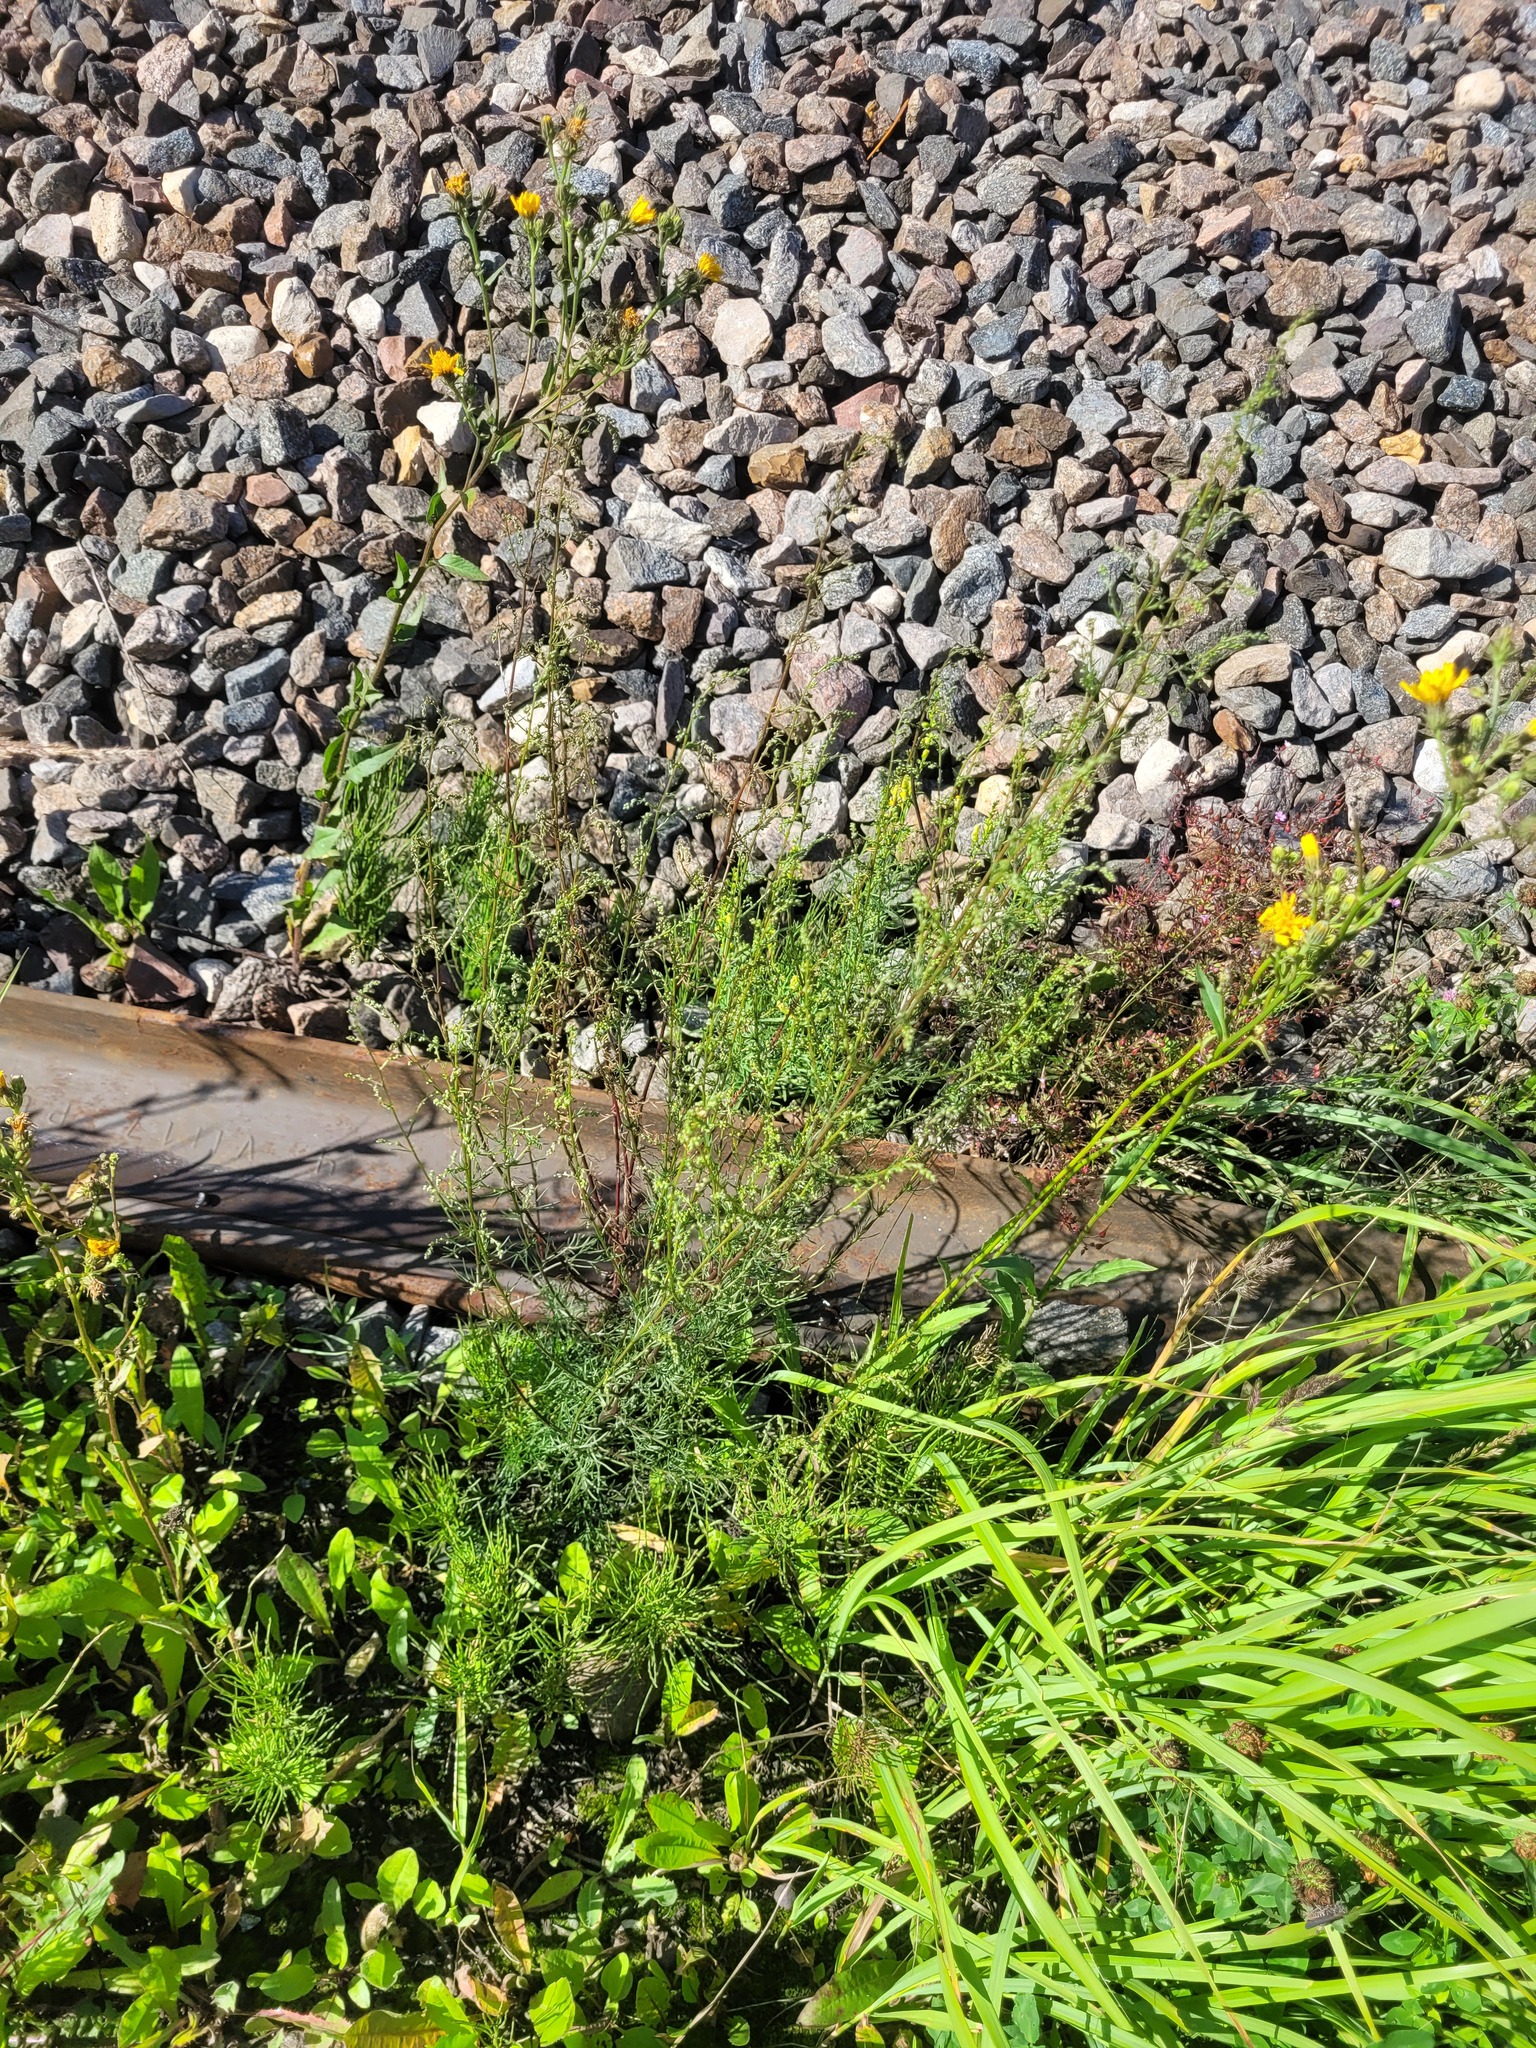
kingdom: Plantae
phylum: Tracheophyta
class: Magnoliopsida
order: Asterales
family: Asteraceae
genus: Artemisia
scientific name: Artemisia campestris
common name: Field wormwood
